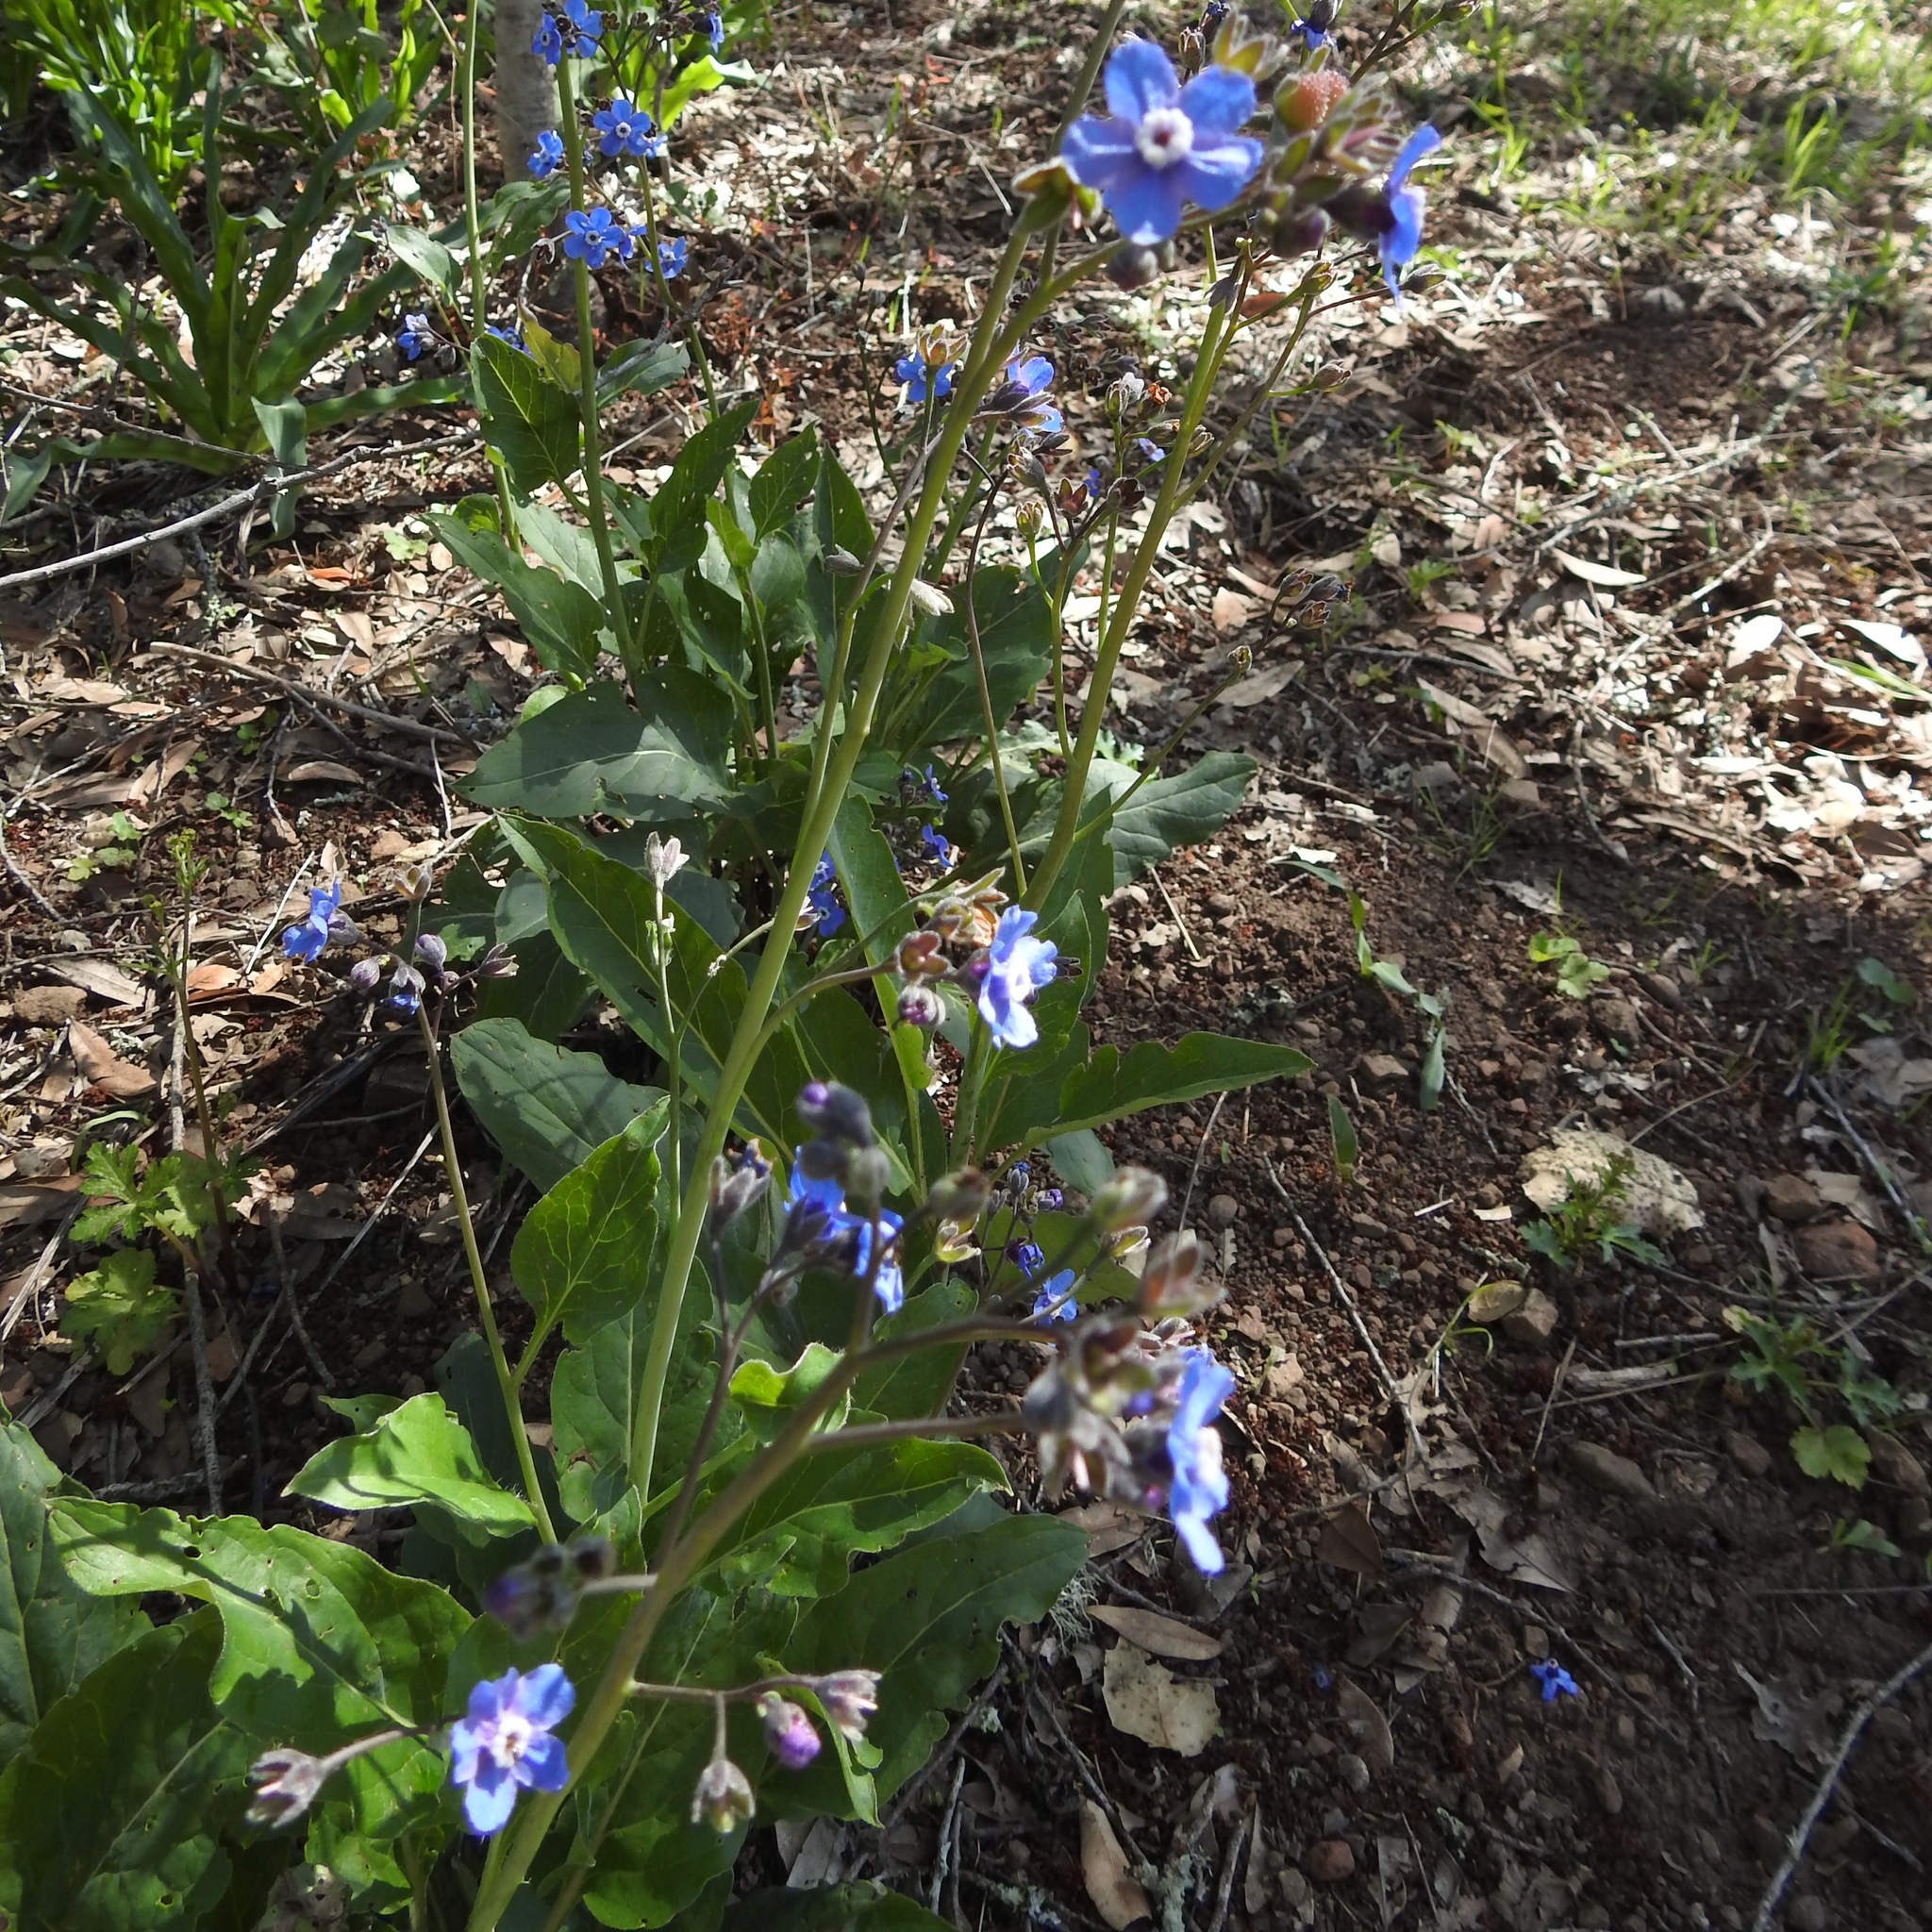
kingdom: Plantae
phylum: Tracheophyta
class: Magnoliopsida
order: Boraginales
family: Boraginaceae
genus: Adelinia
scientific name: Adelinia grande
